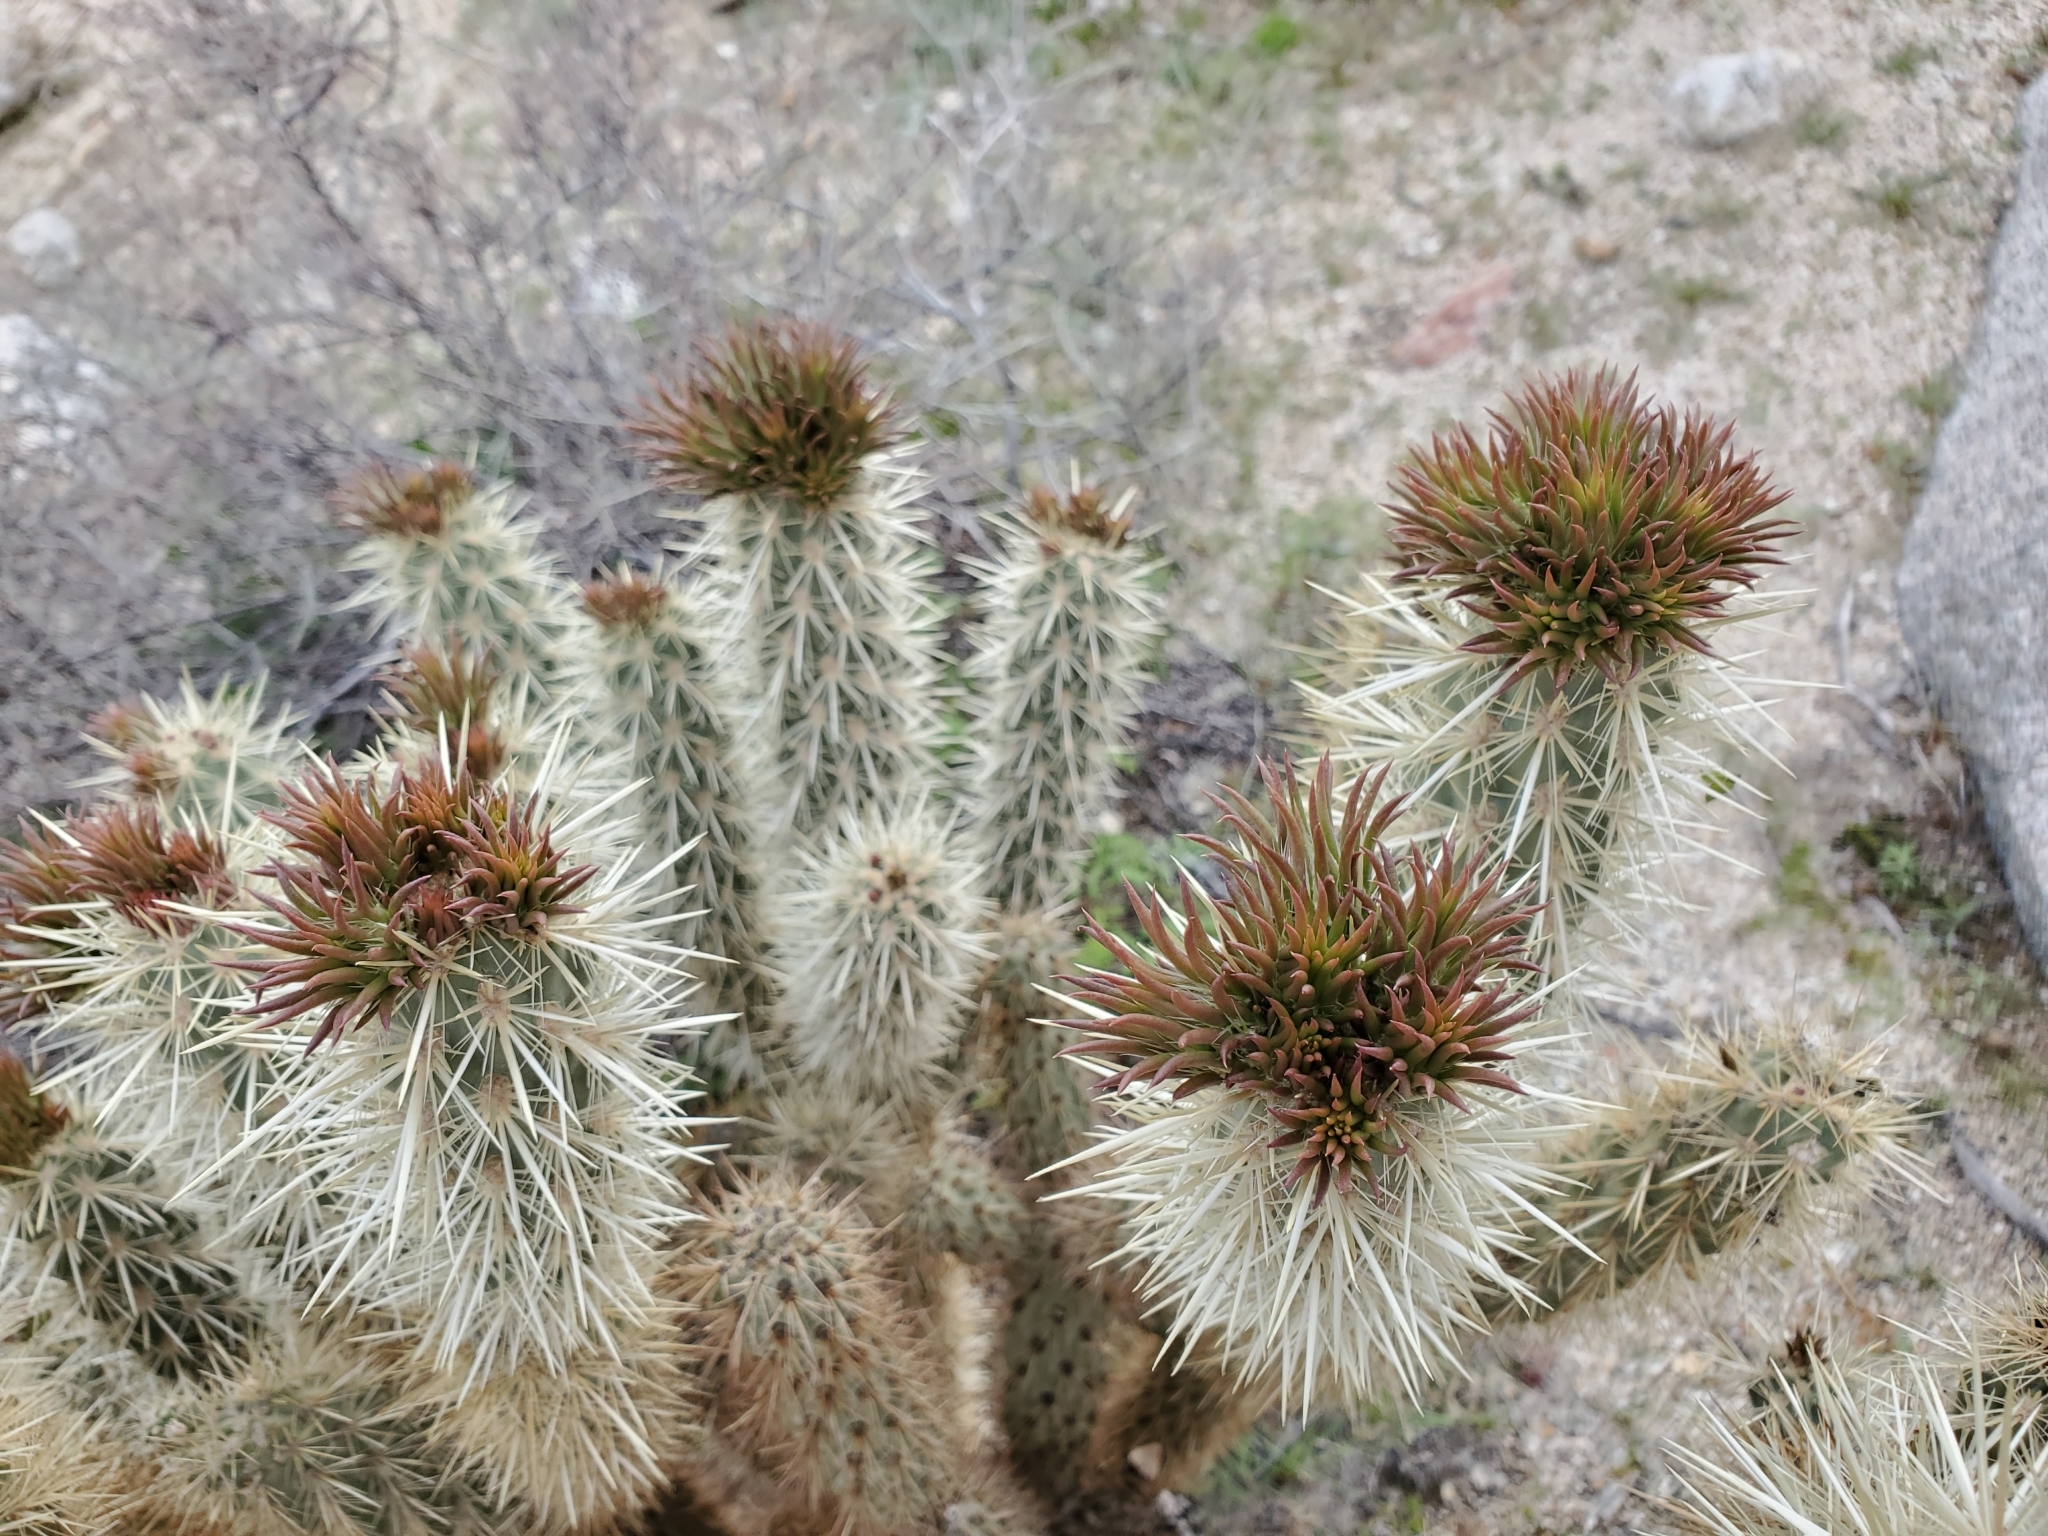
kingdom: Plantae
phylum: Tracheophyta
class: Magnoliopsida
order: Caryophyllales
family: Cactaceae
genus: Cylindropuntia
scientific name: Cylindropuntia ganderi
